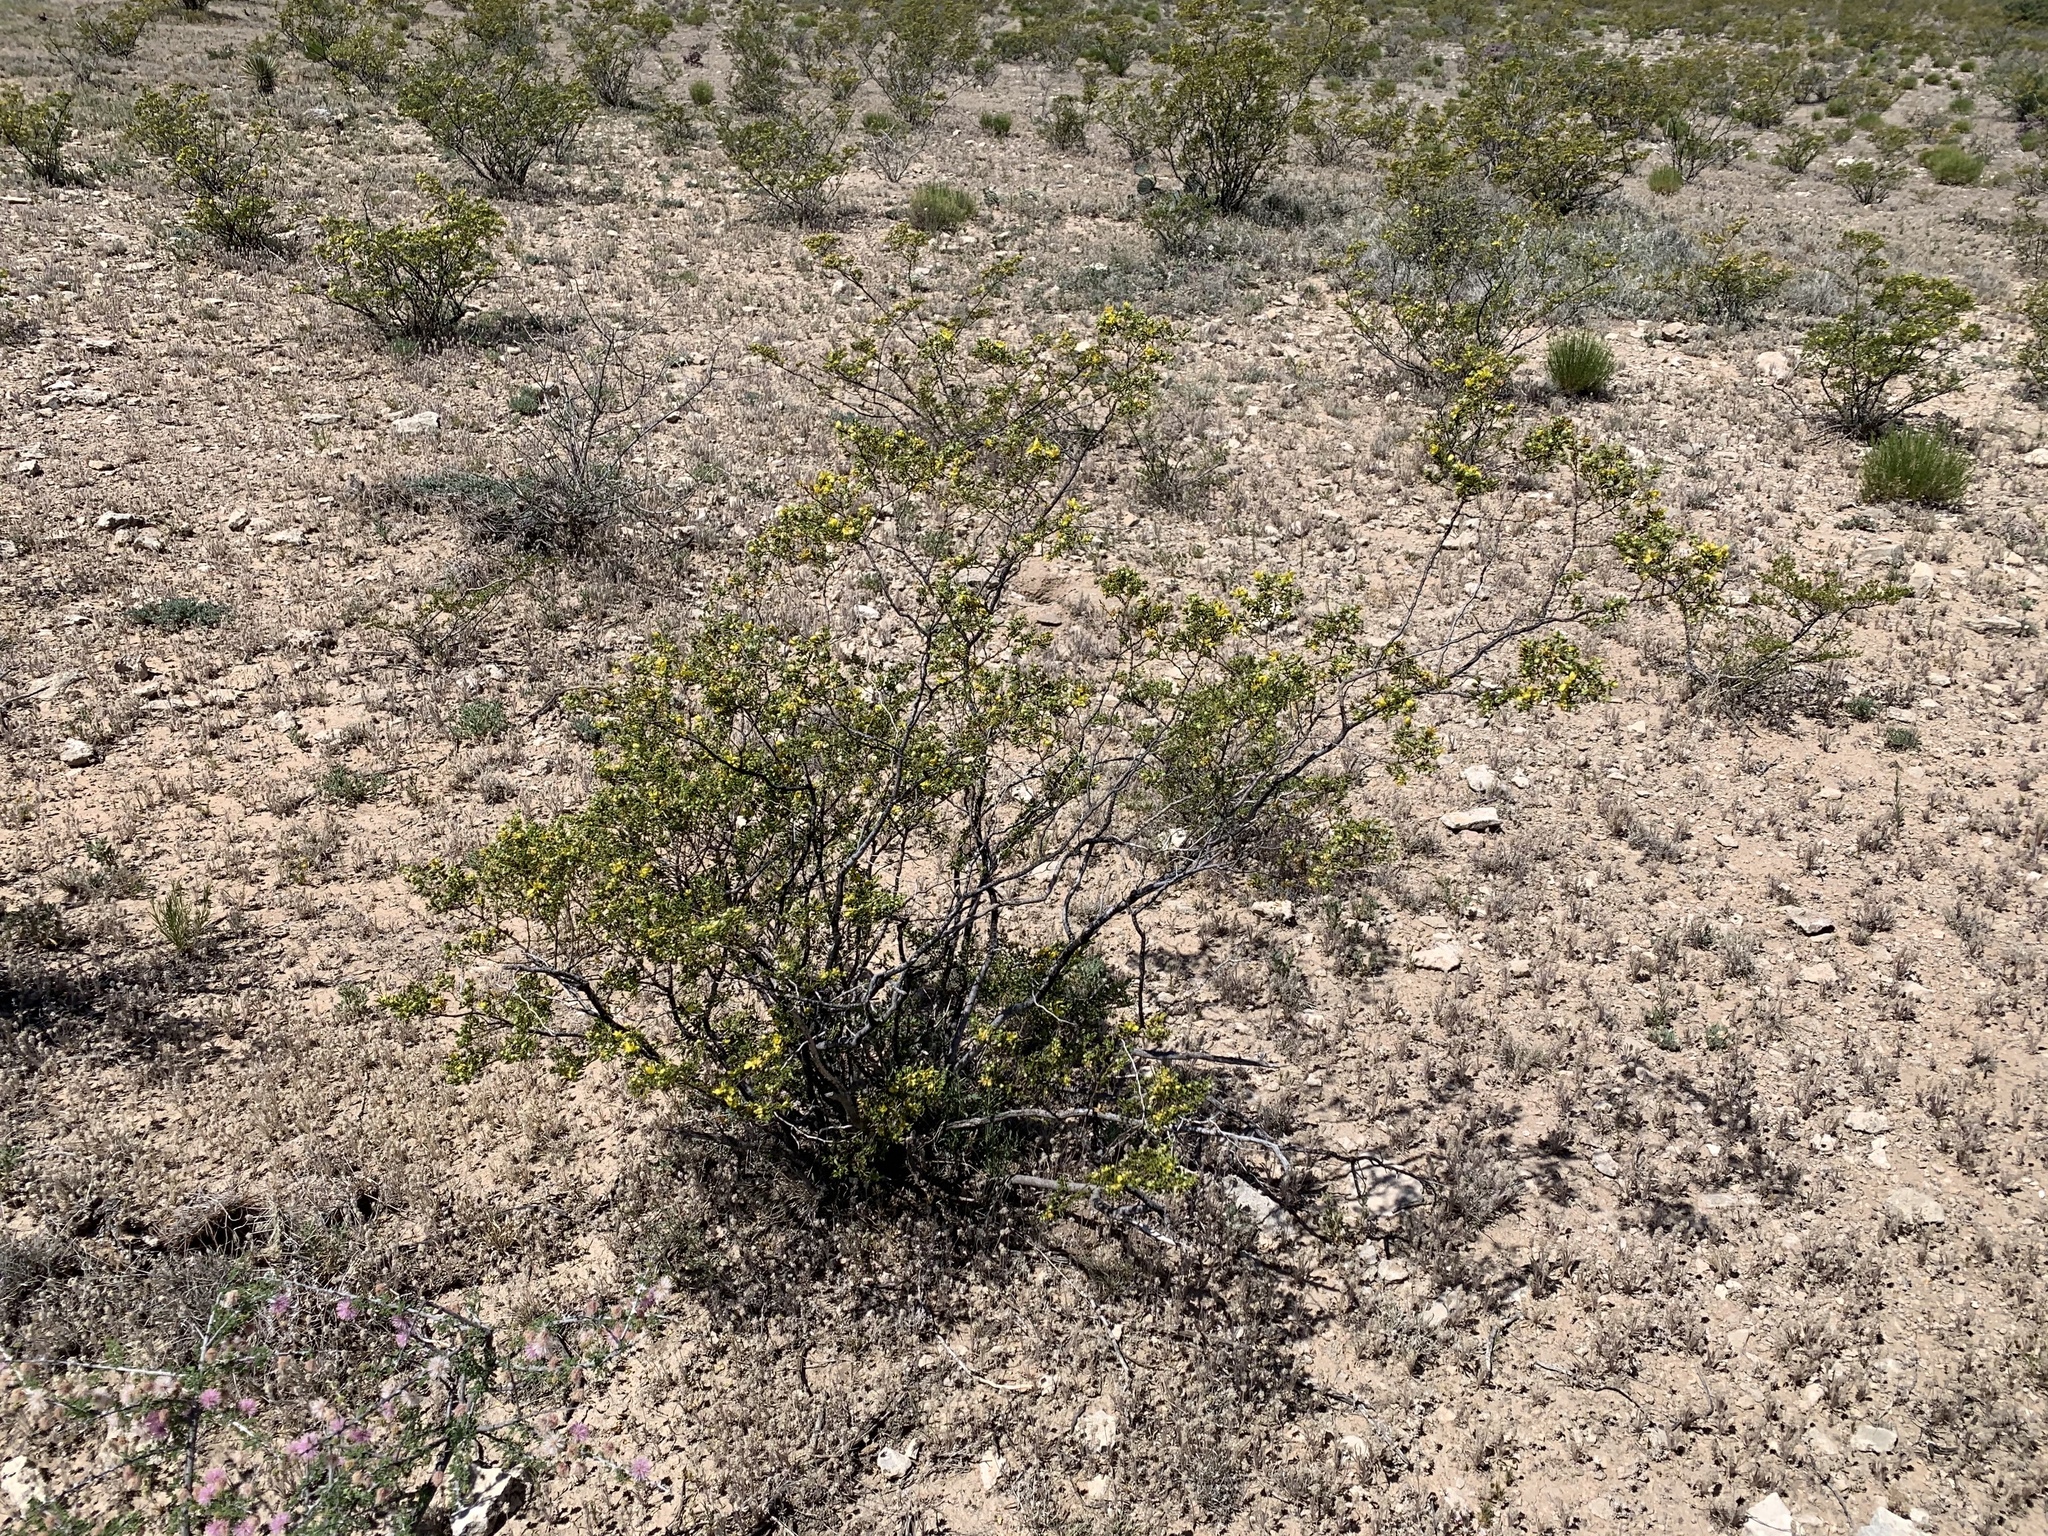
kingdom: Plantae
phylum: Tracheophyta
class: Magnoliopsida
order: Zygophyllales
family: Zygophyllaceae
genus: Larrea
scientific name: Larrea tridentata
